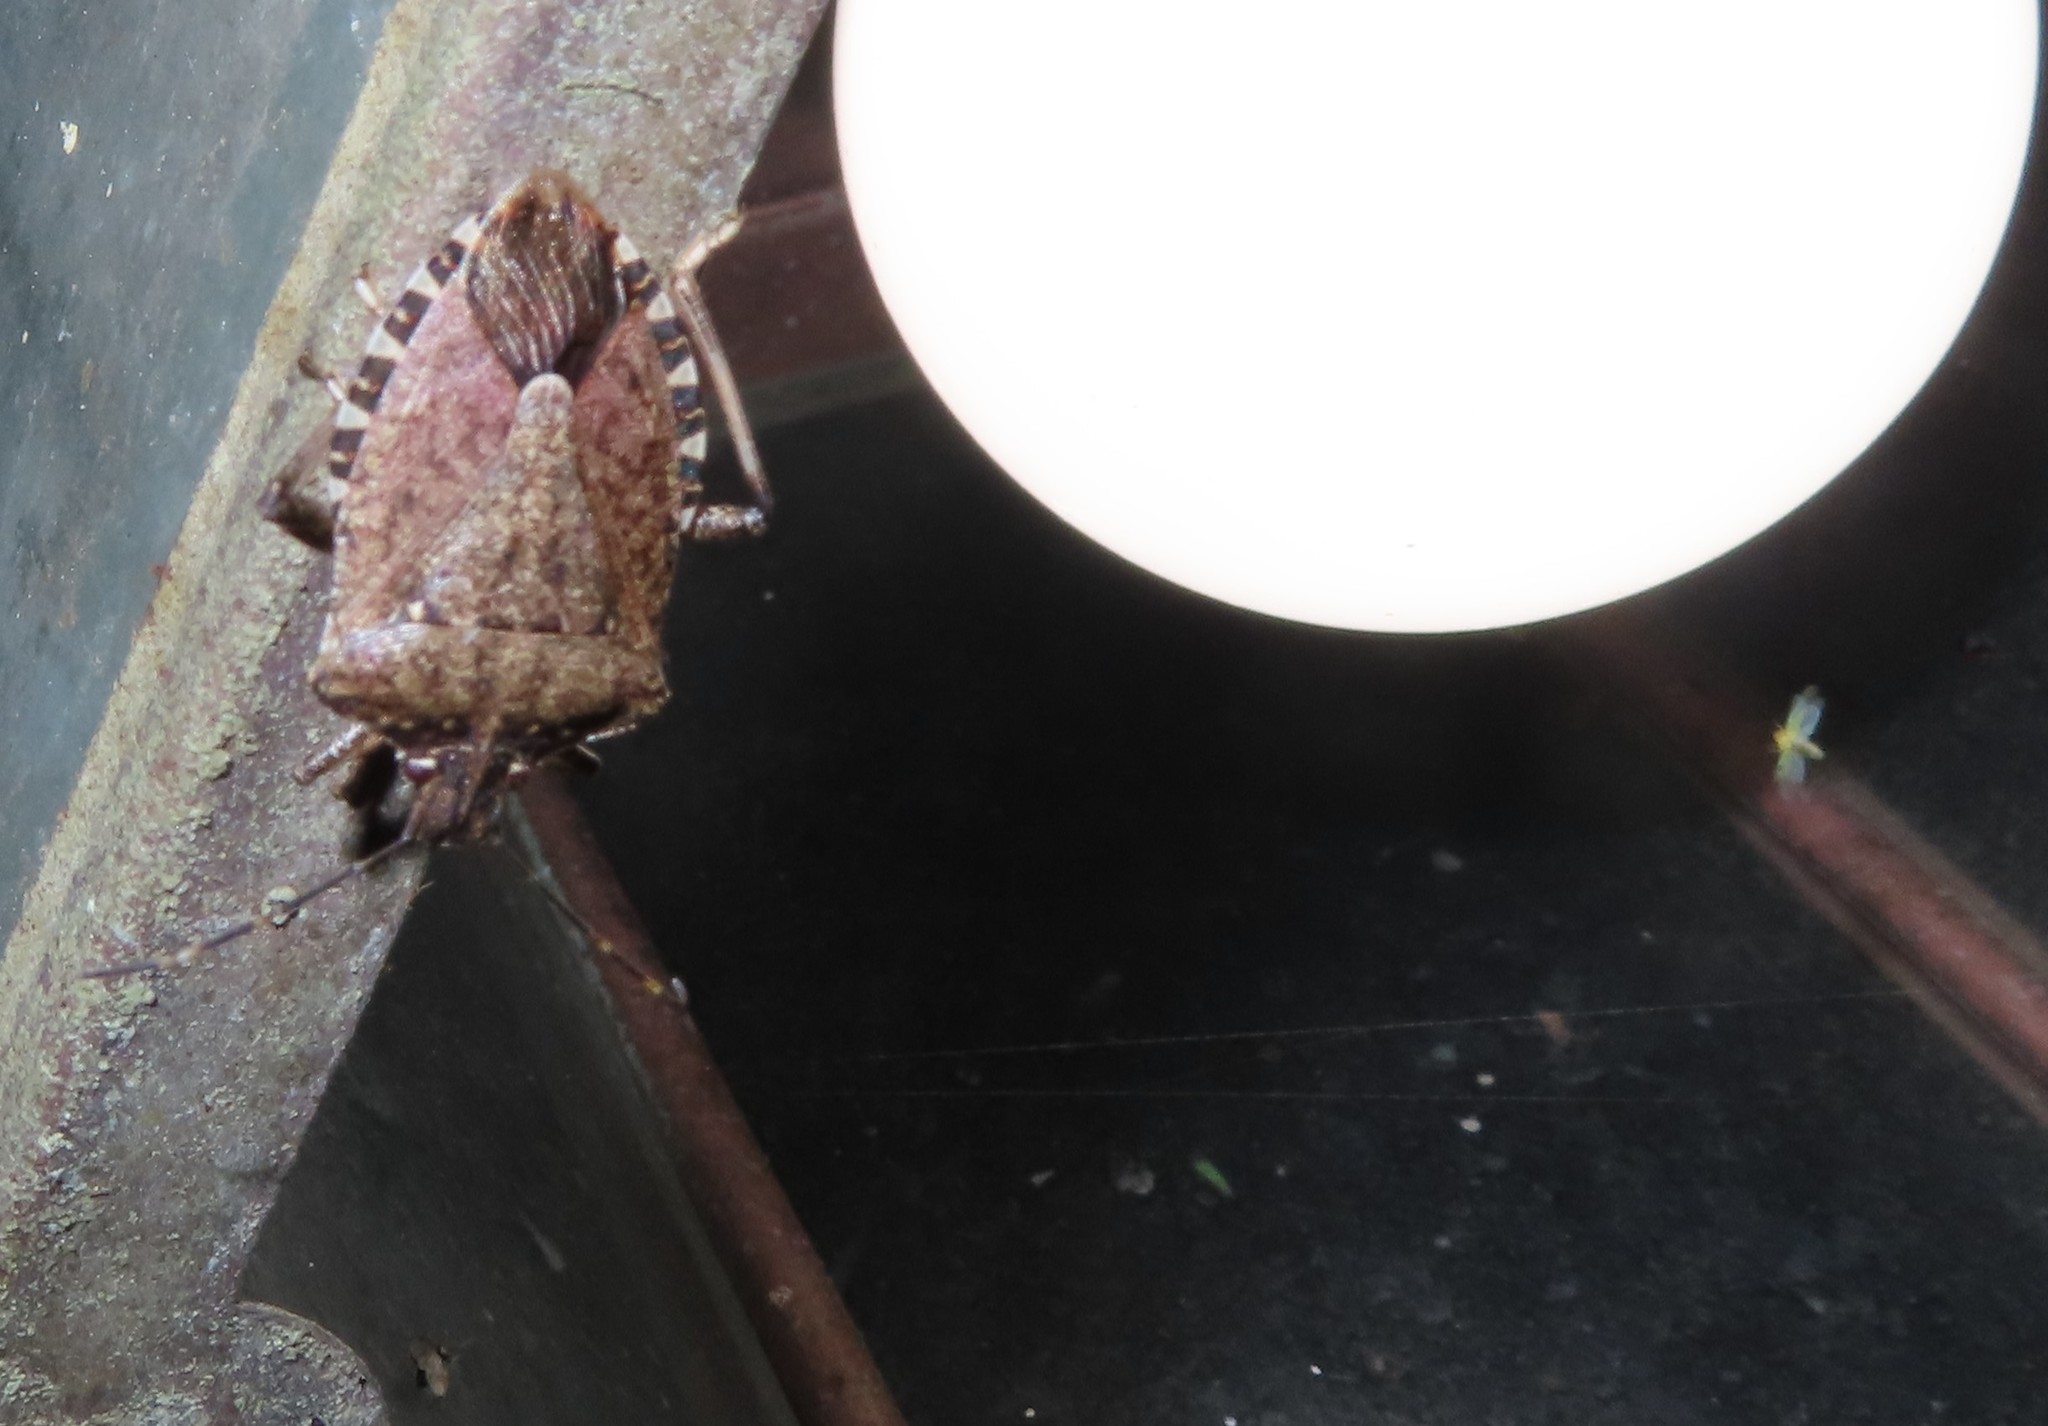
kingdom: Animalia
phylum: Arthropoda
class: Insecta
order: Hemiptera
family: Pentatomidae
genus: Halyomorpha
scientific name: Halyomorpha halys
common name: Brown marmorated stink bug
